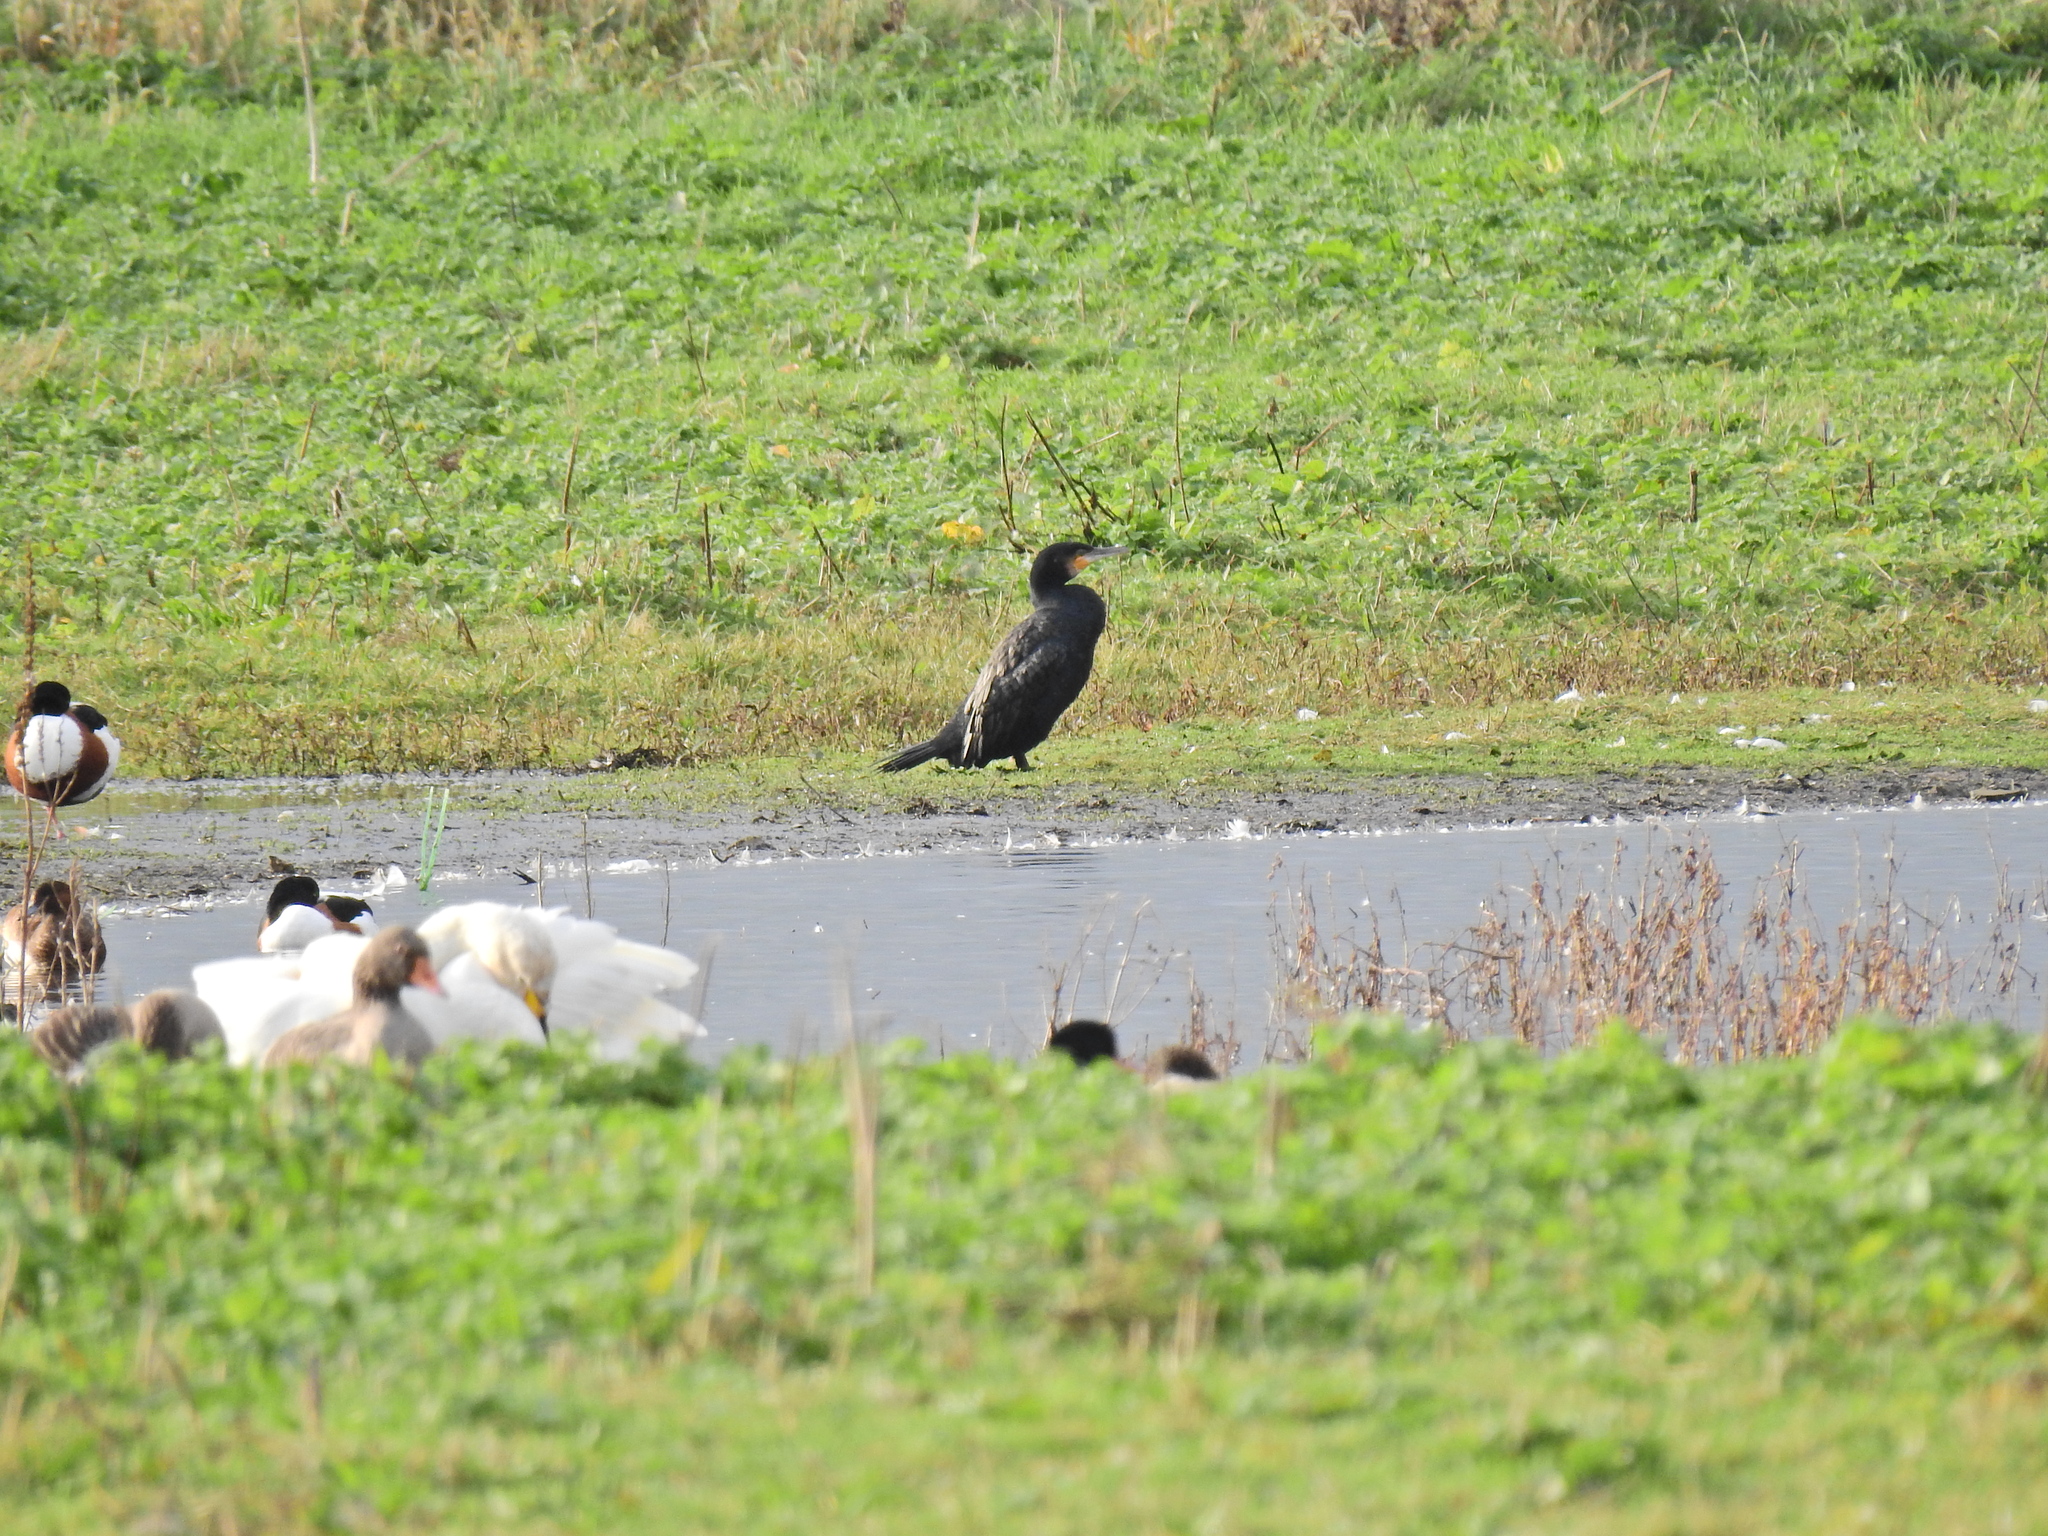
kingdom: Animalia
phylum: Chordata
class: Aves
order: Suliformes
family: Phalacrocoracidae
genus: Phalacrocorax
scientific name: Phalacrocorax carbo
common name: Great cormorant
